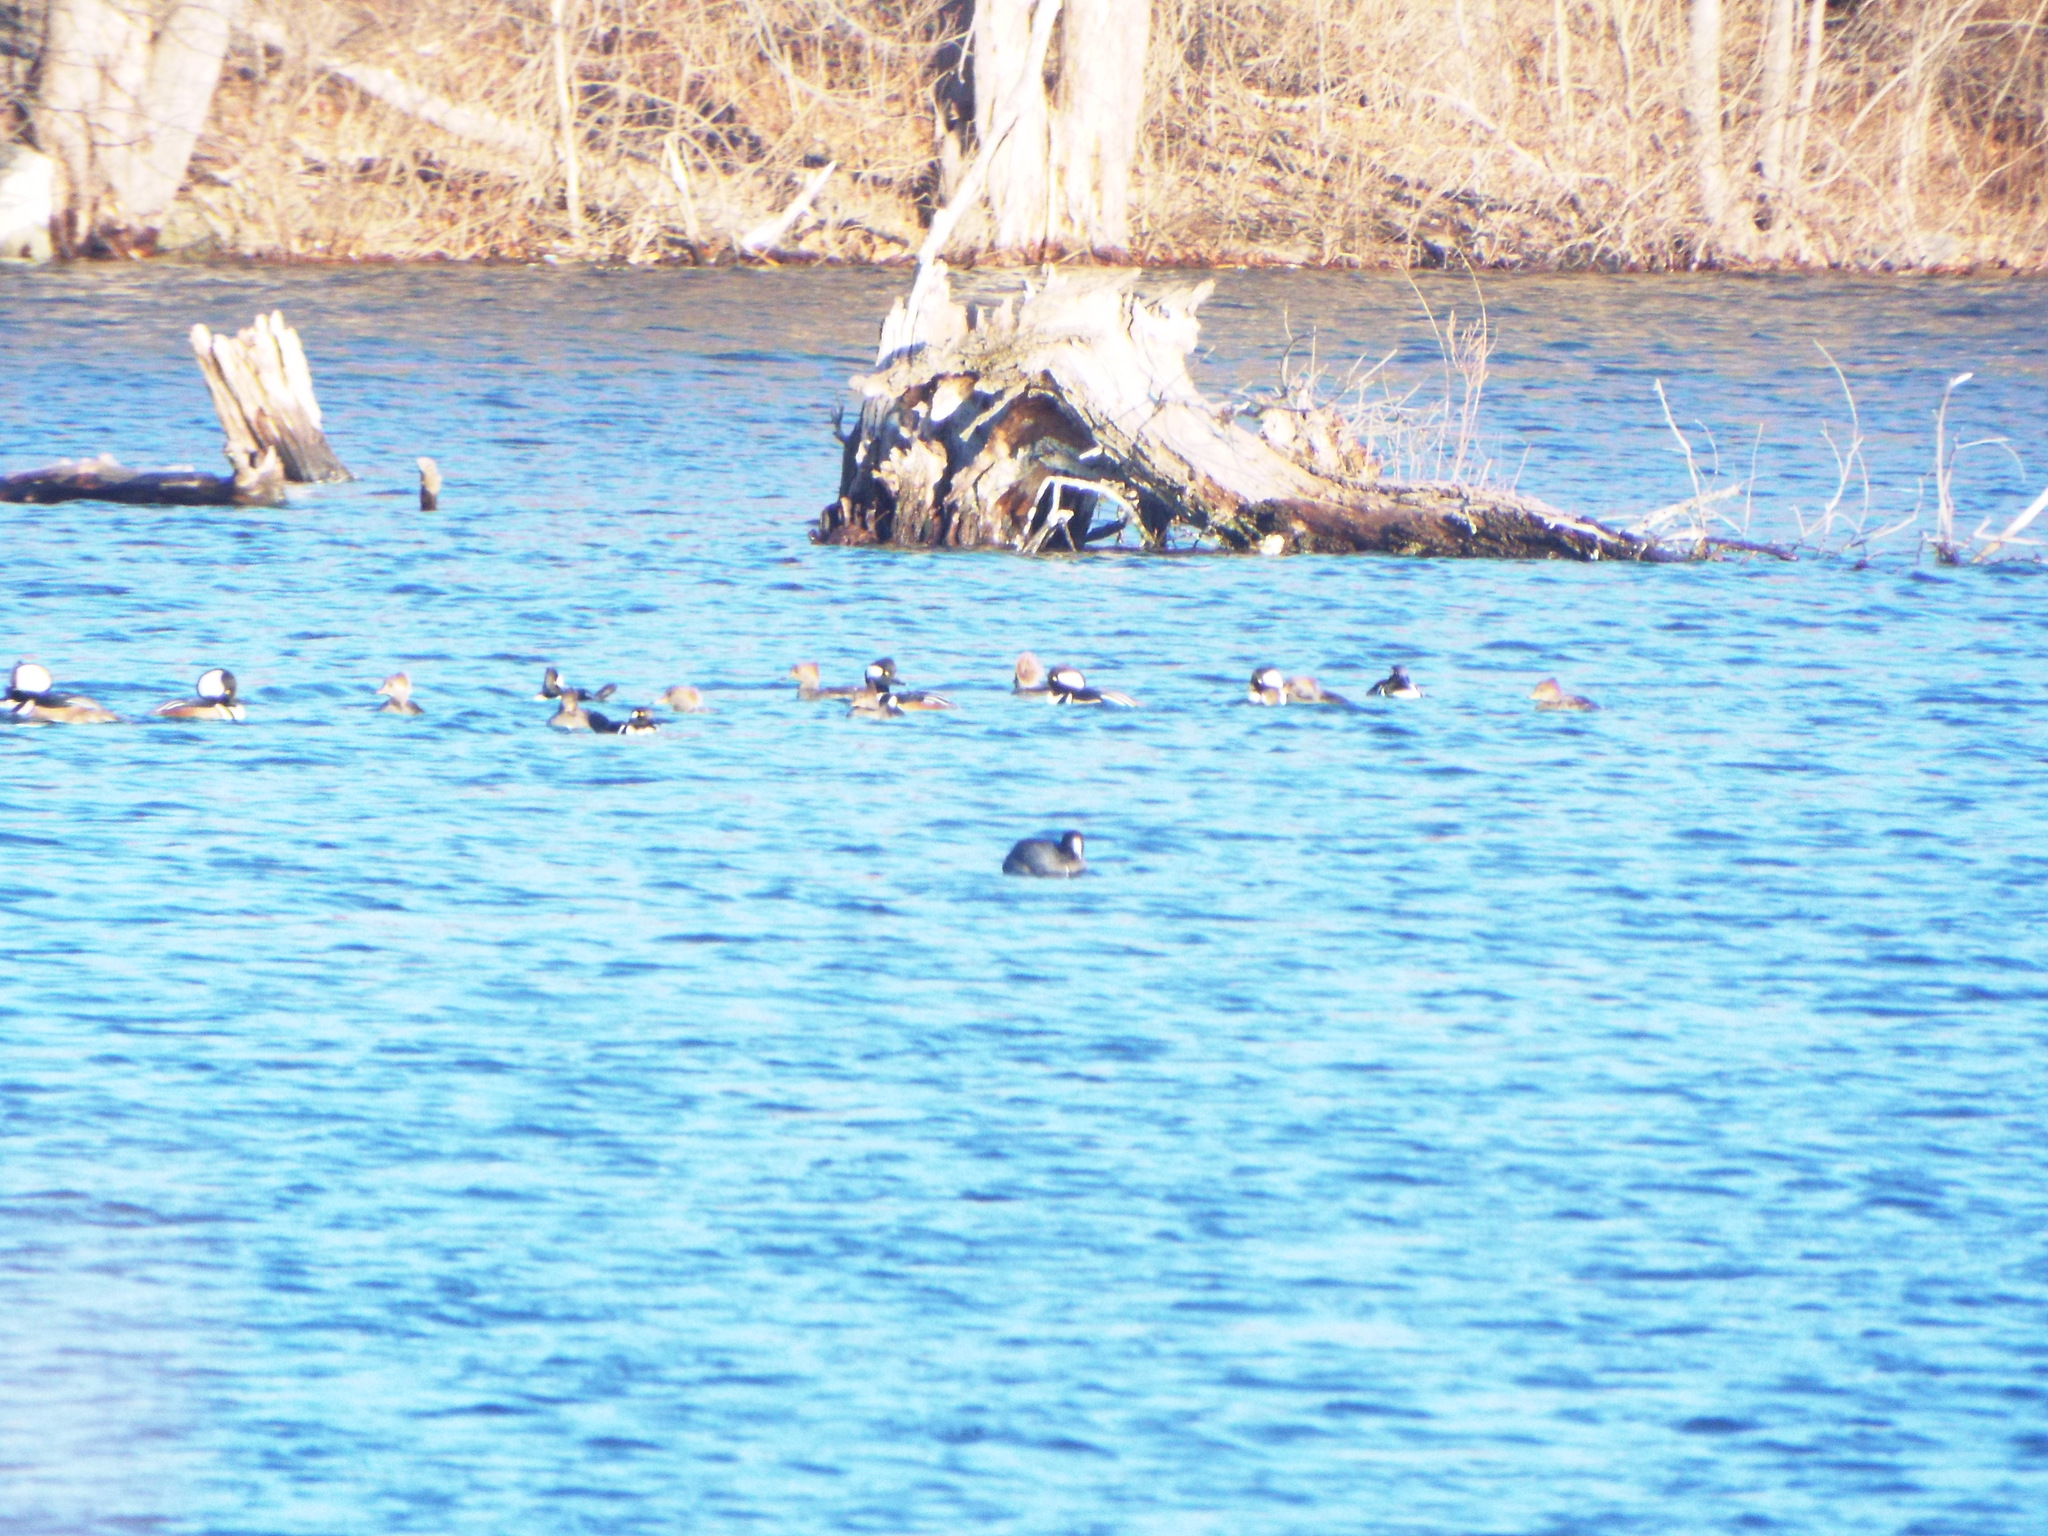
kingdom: Animalia
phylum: Chordata
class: Aves
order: Anseriformes
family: Anatidae
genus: Lophodytes
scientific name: Lophodytes cucullatus
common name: Hooded merganser
